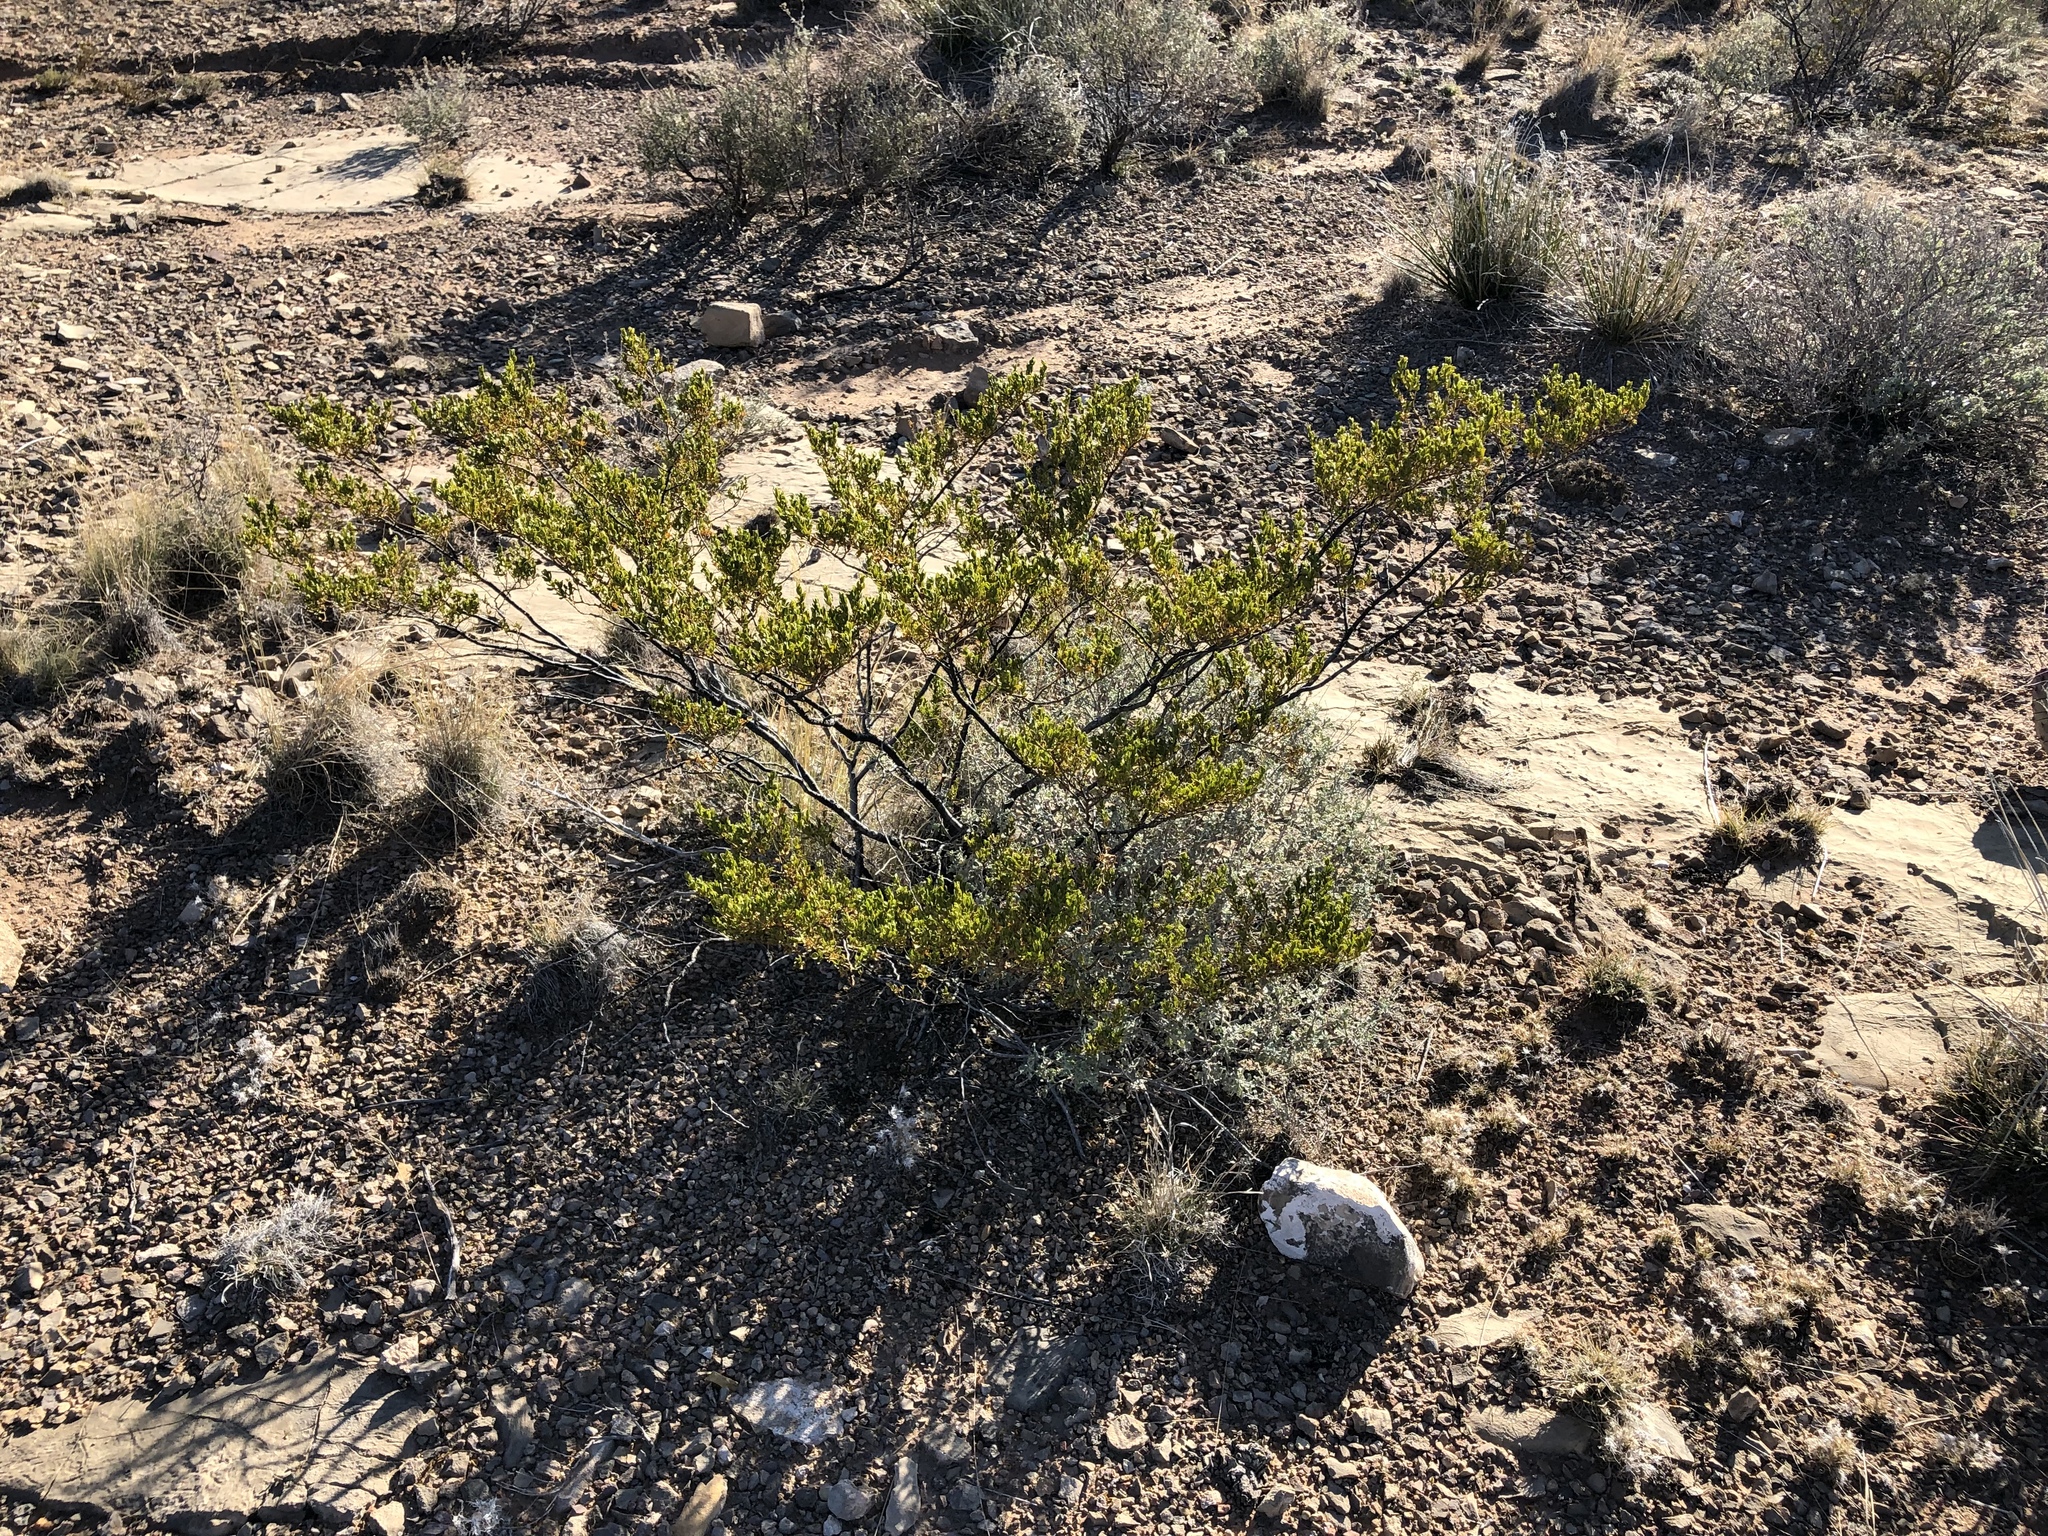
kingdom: Plantae
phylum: Tracheophyta
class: Magnoliopsida
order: Zygophyllales
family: Zygophyllaceae
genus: Larrea
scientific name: Larrea tridentata
